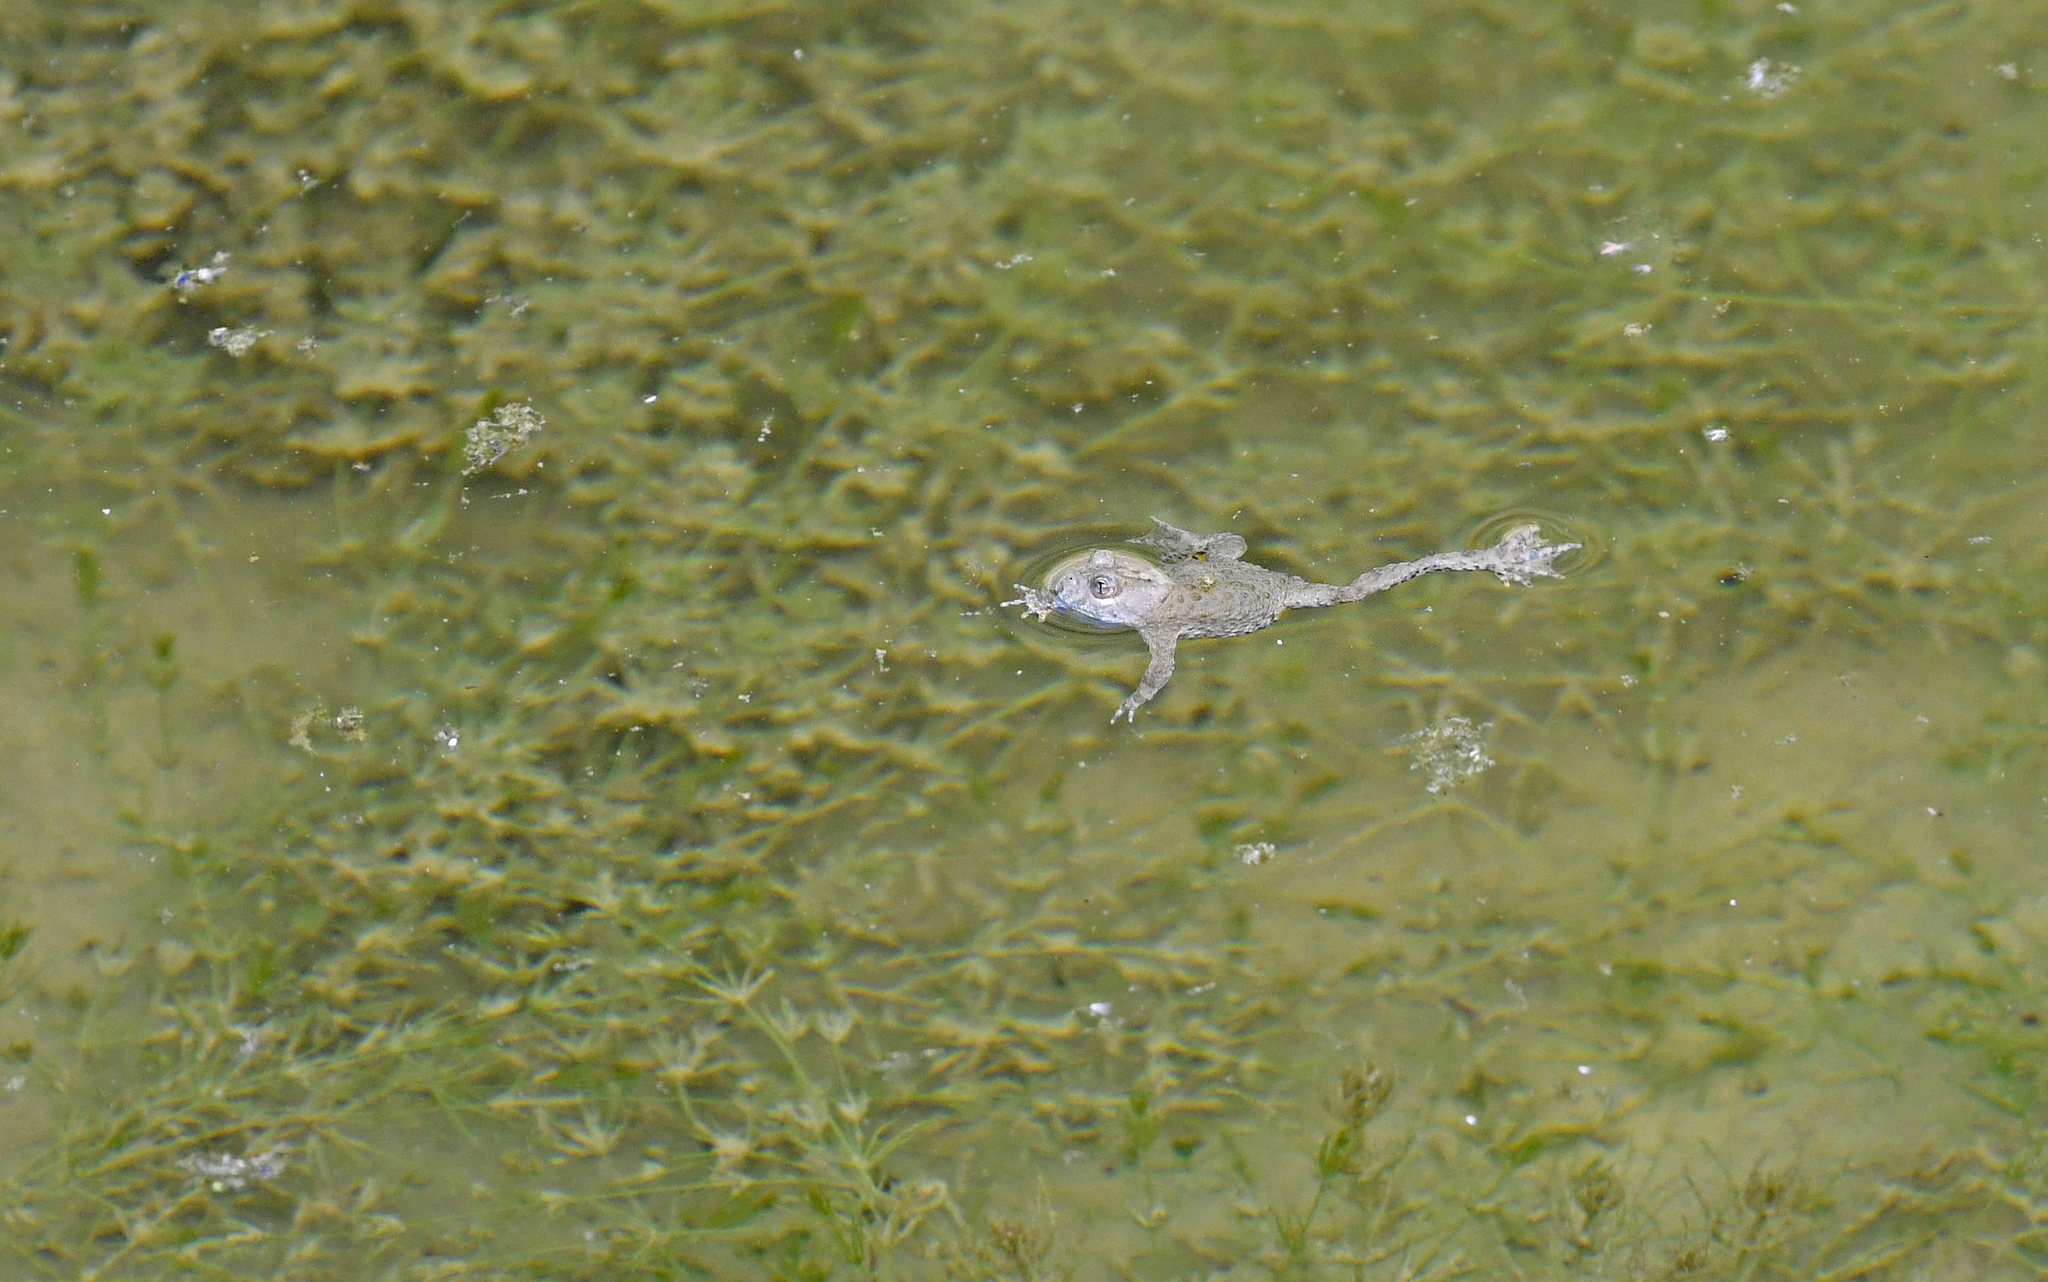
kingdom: Animalia
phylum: Chordata
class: Amphibia
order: Anura
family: Bombinatoridae
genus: Bombina
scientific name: Bombina variegata
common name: Yellow-bellied toad
